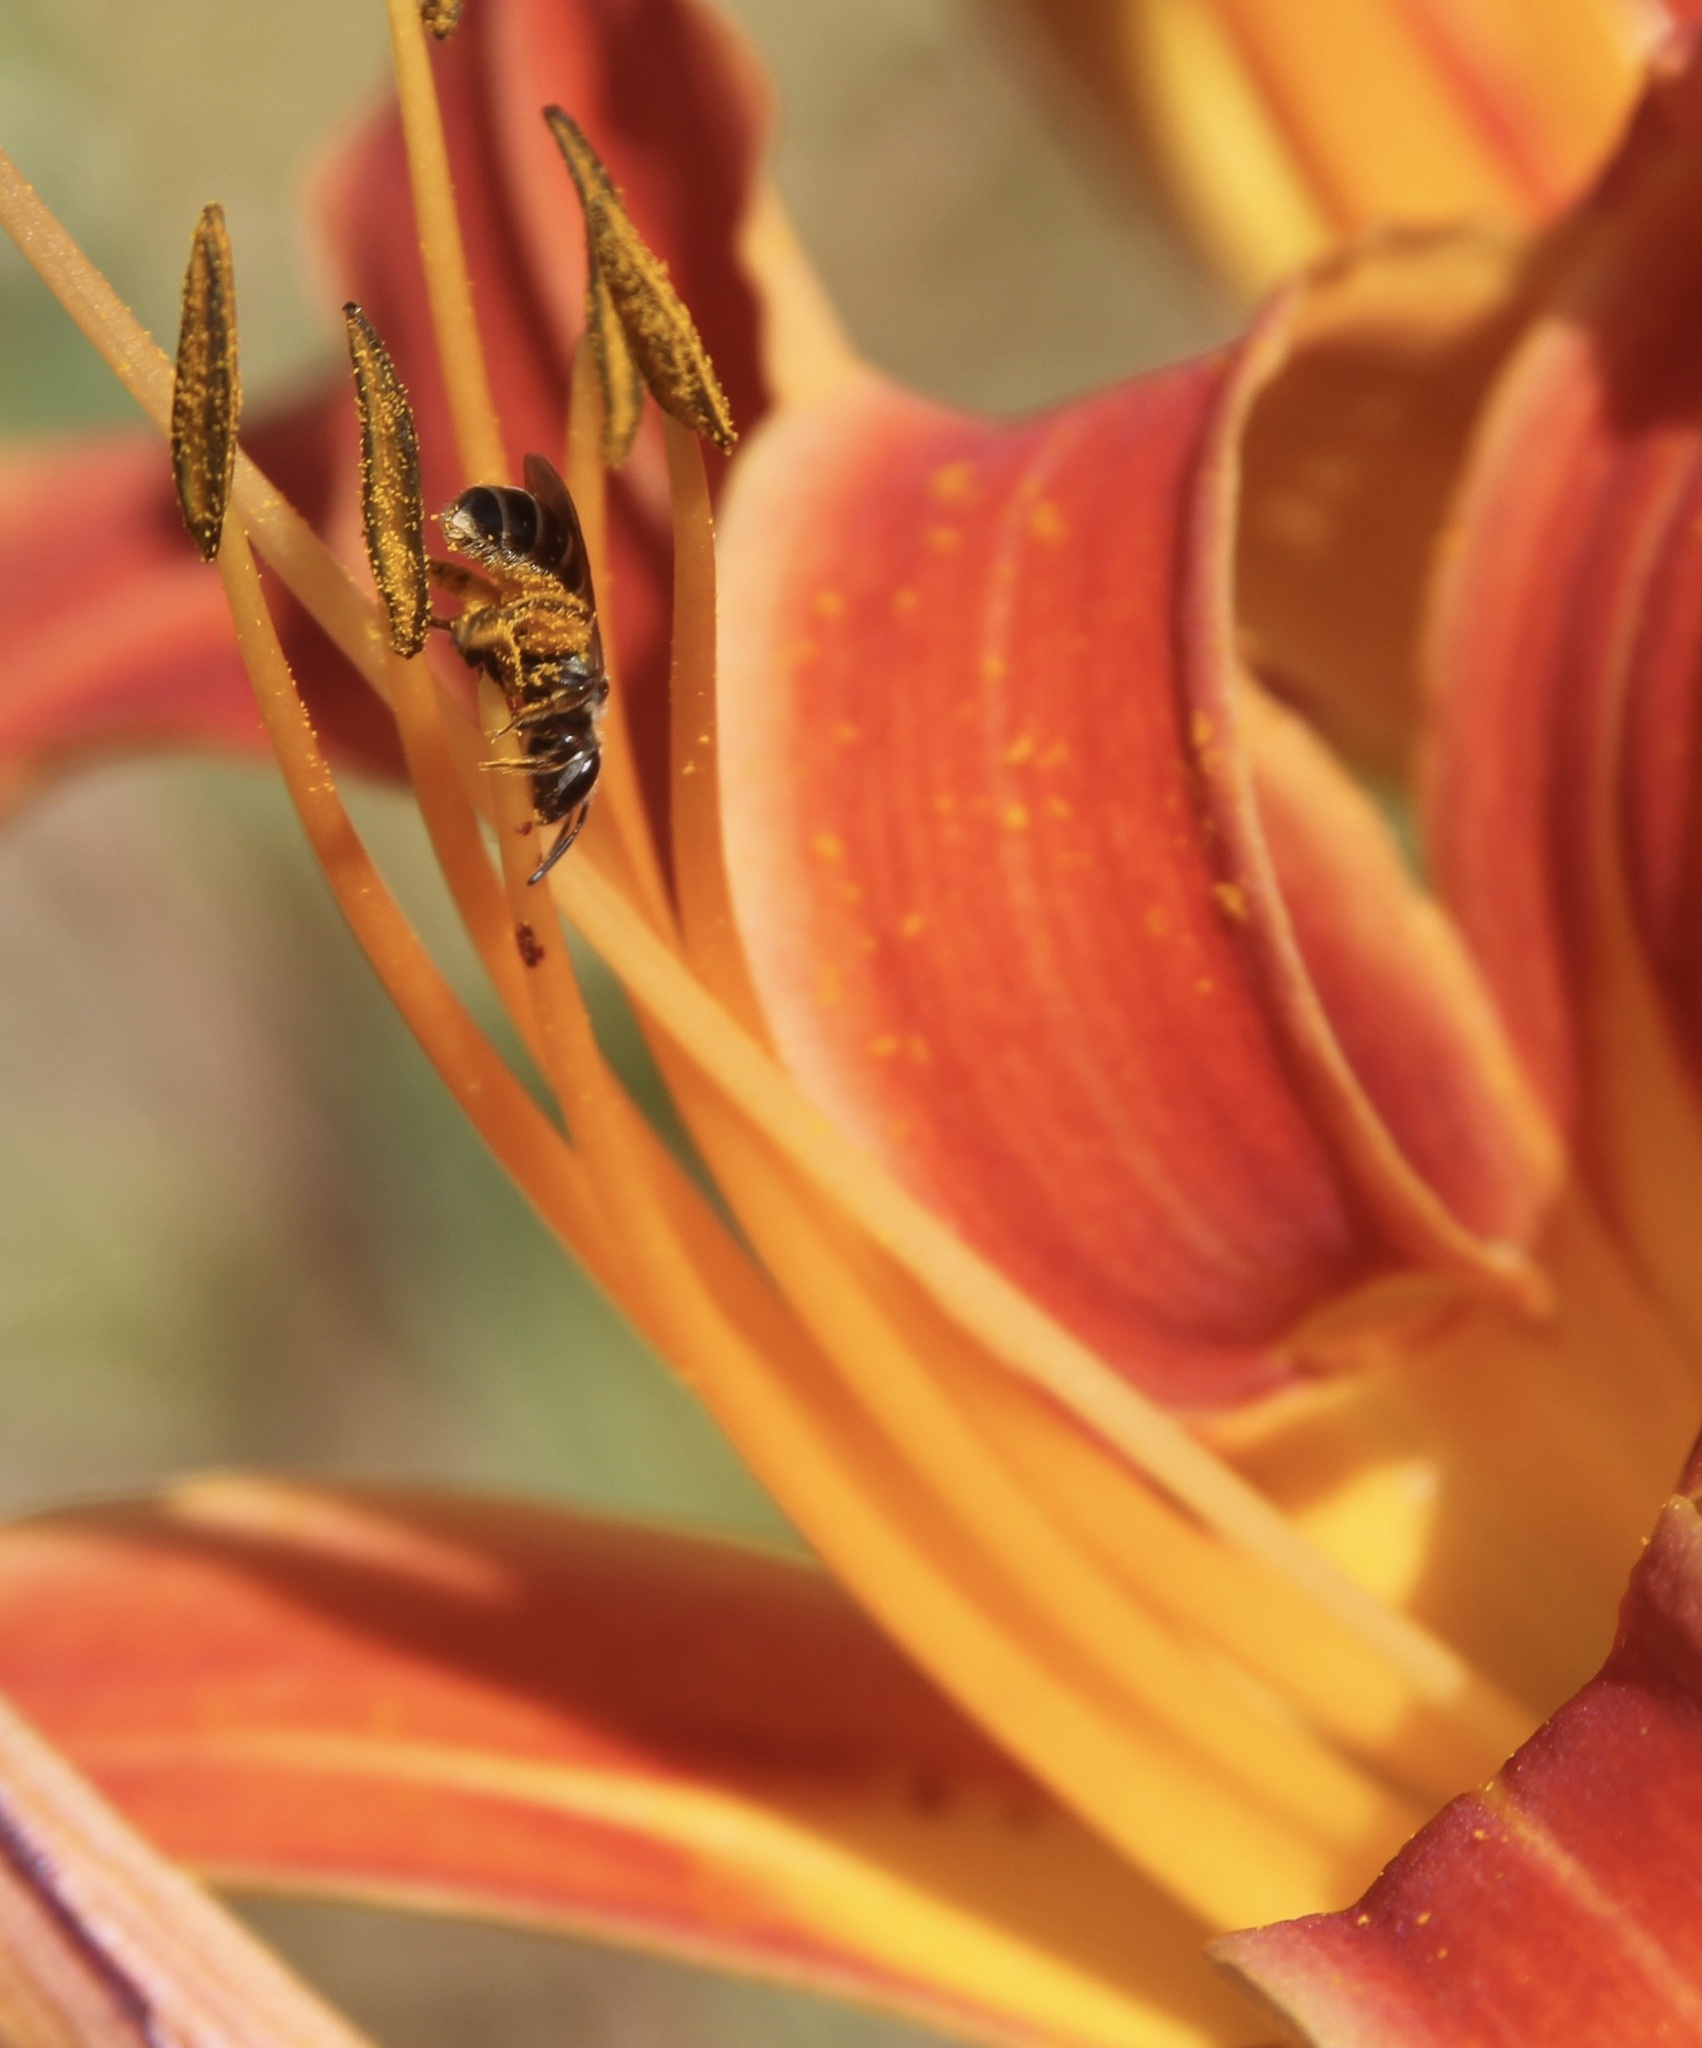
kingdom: Animalia
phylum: Arthropoda
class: Insecta
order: Hymenoptera
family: Halictidae
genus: Halictus
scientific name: Halictus tripartitus
